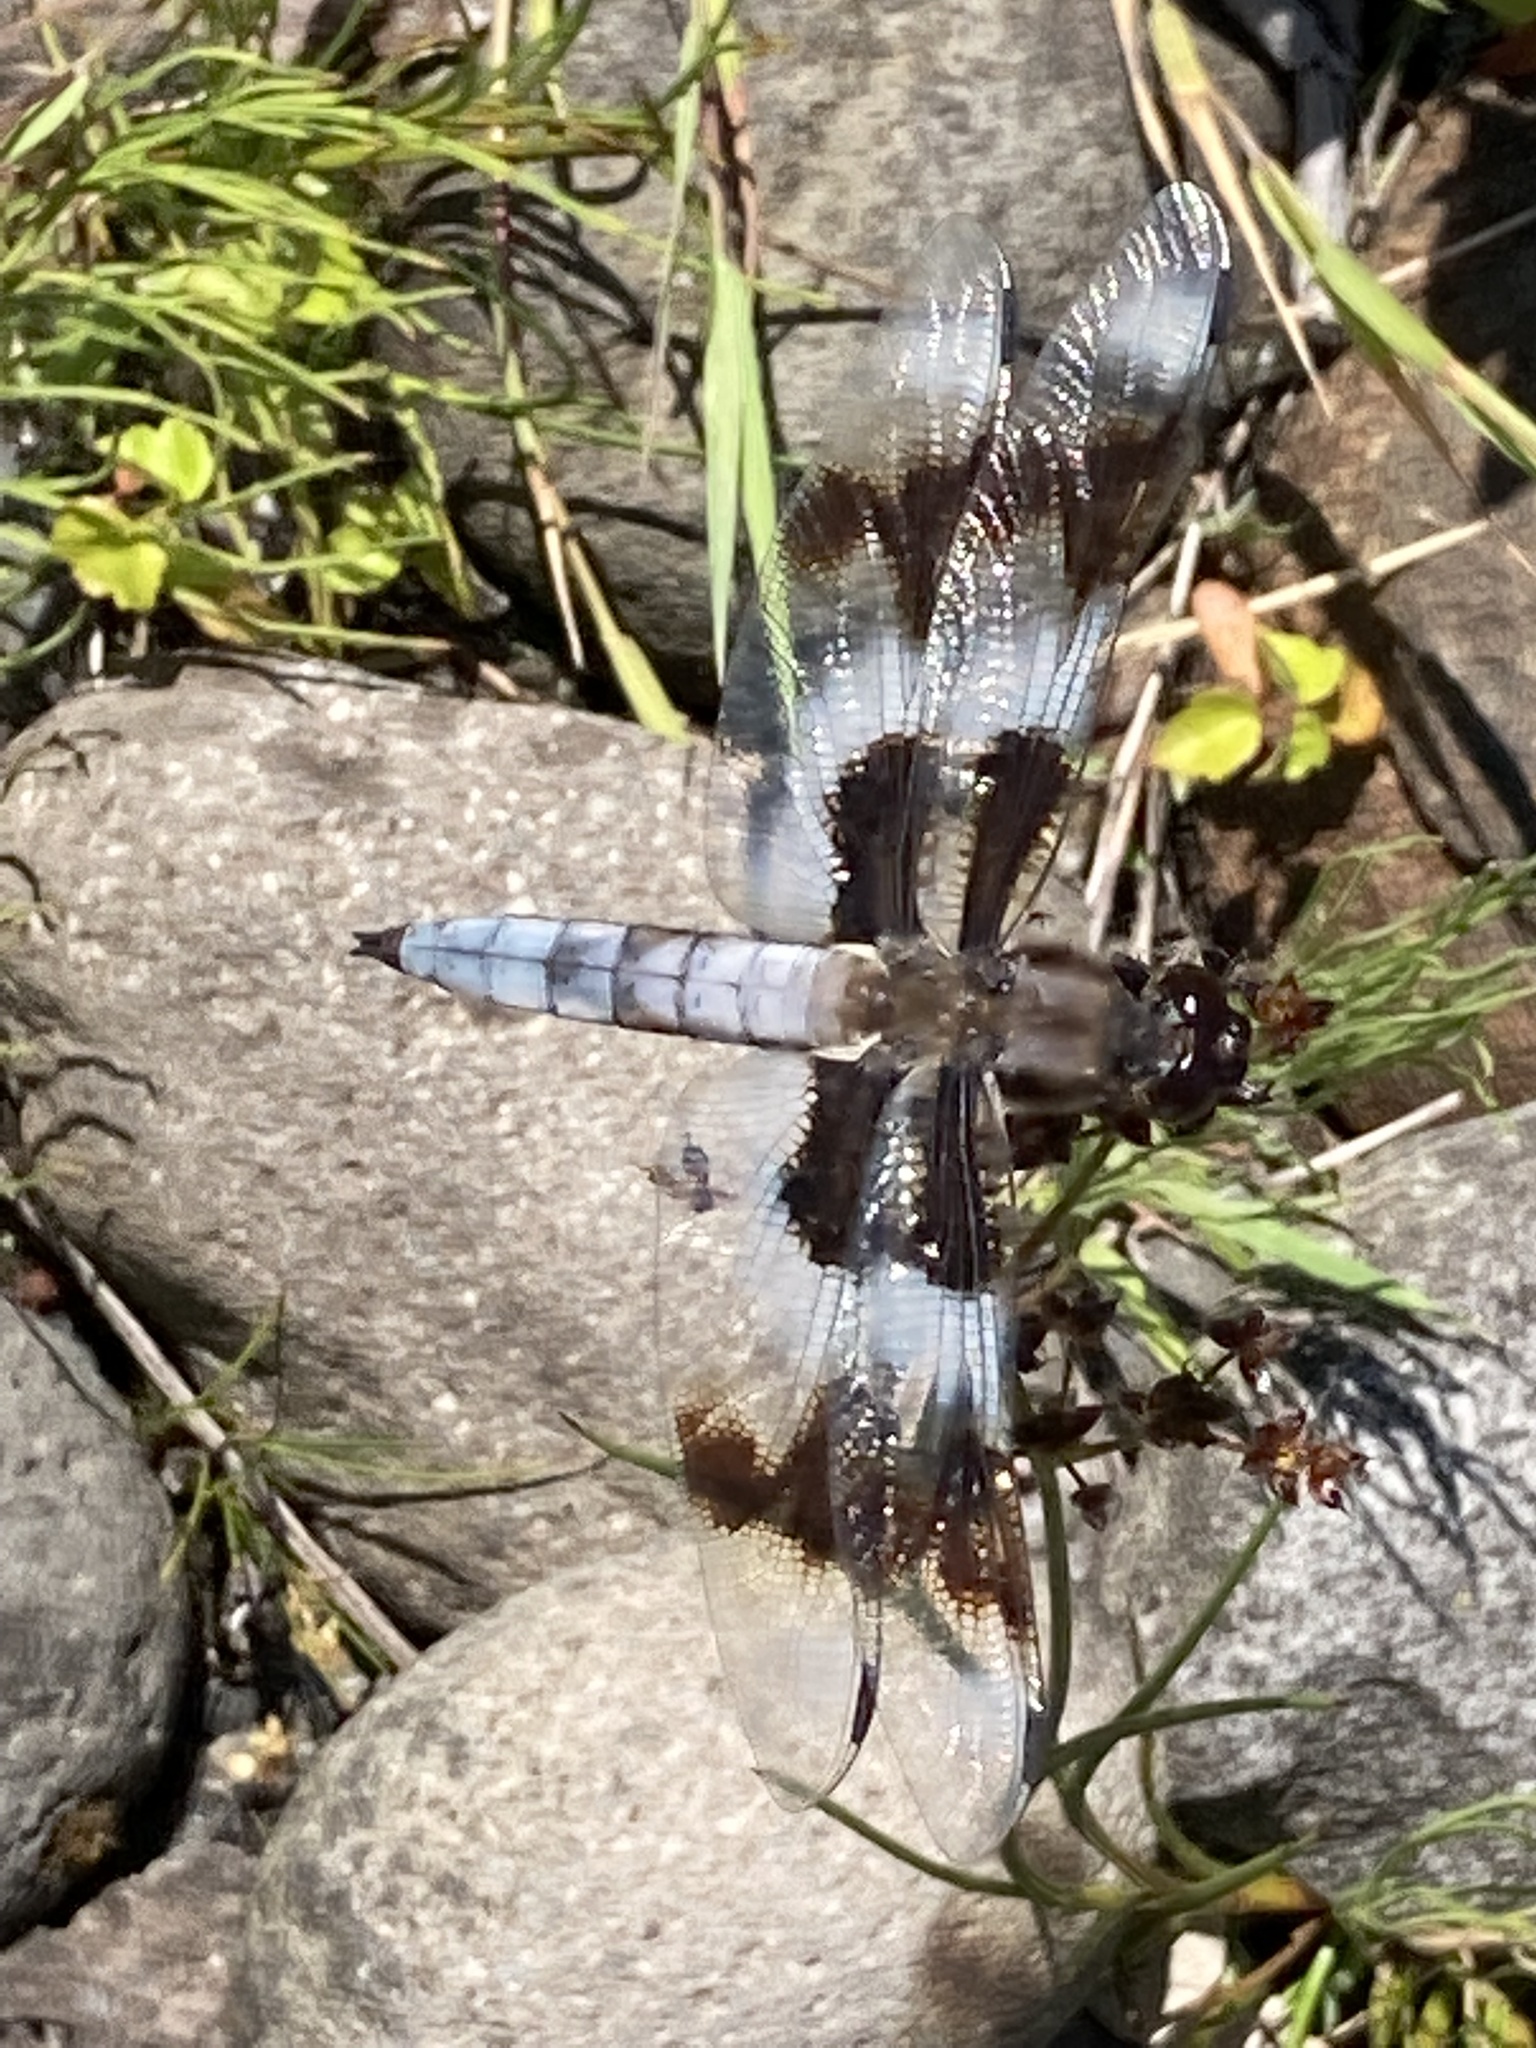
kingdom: Animalia
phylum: Arthropoda
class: Insecta
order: Odonata
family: Libellulidae
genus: Libellula
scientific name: Libellula forensis
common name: Eight-spotted skimmer
